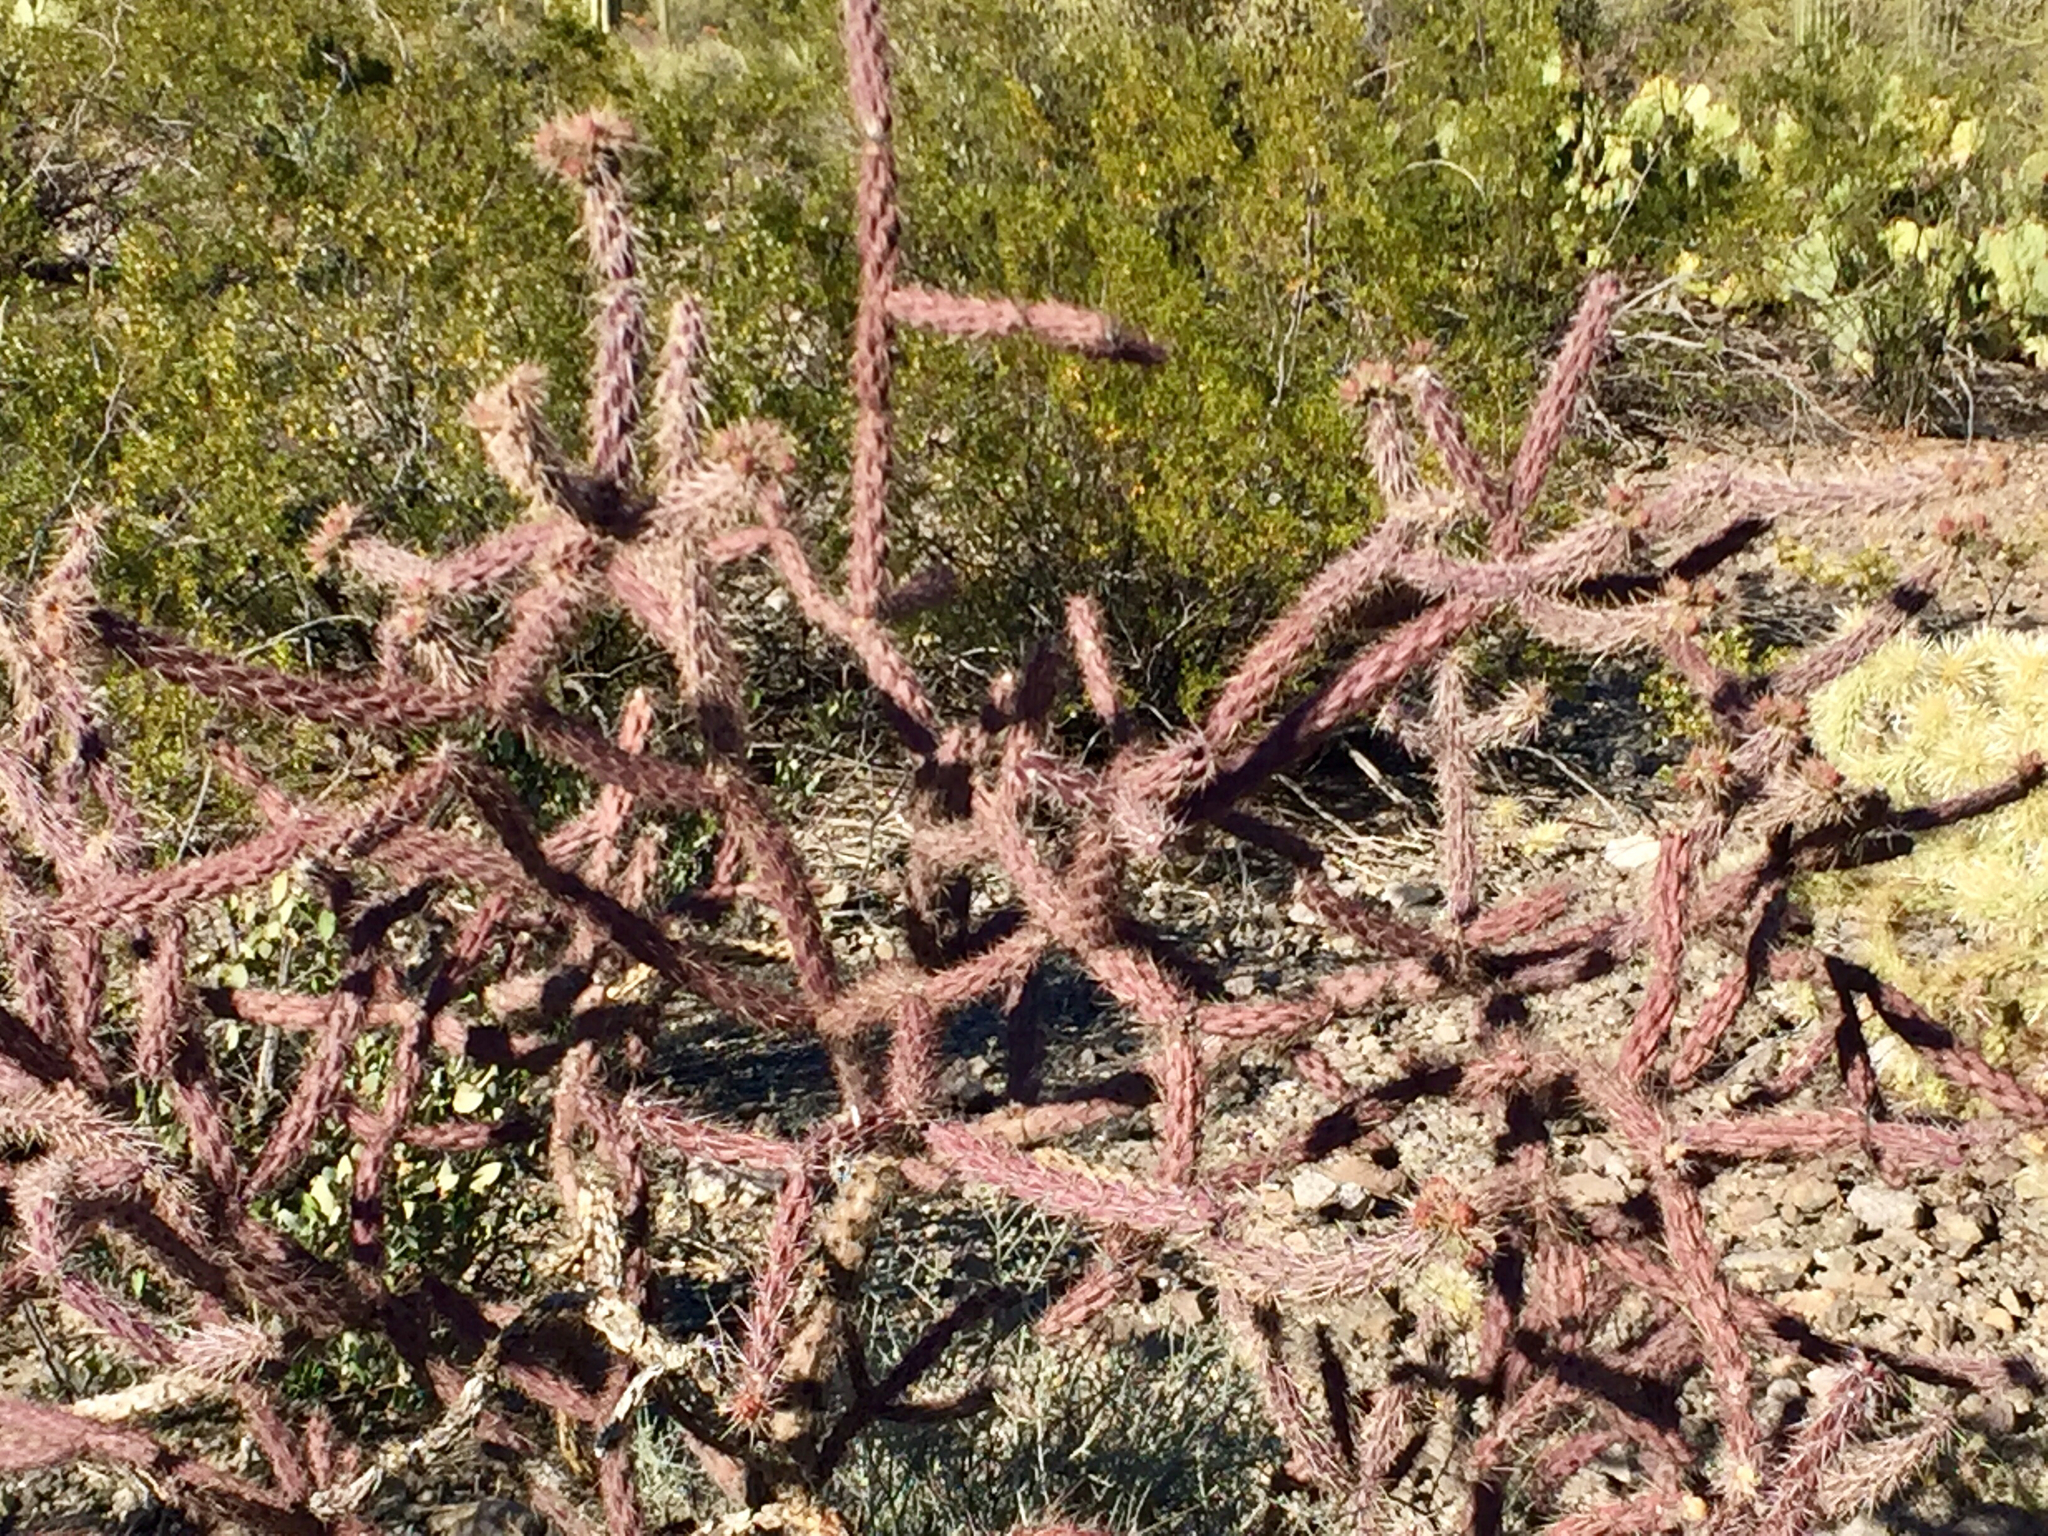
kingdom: Plantae
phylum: Tracheophyta
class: Magnoliopsida
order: Caryophyllales
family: Cactaceae
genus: Cylindropuntia
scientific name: Cylindropuntia thurberi
